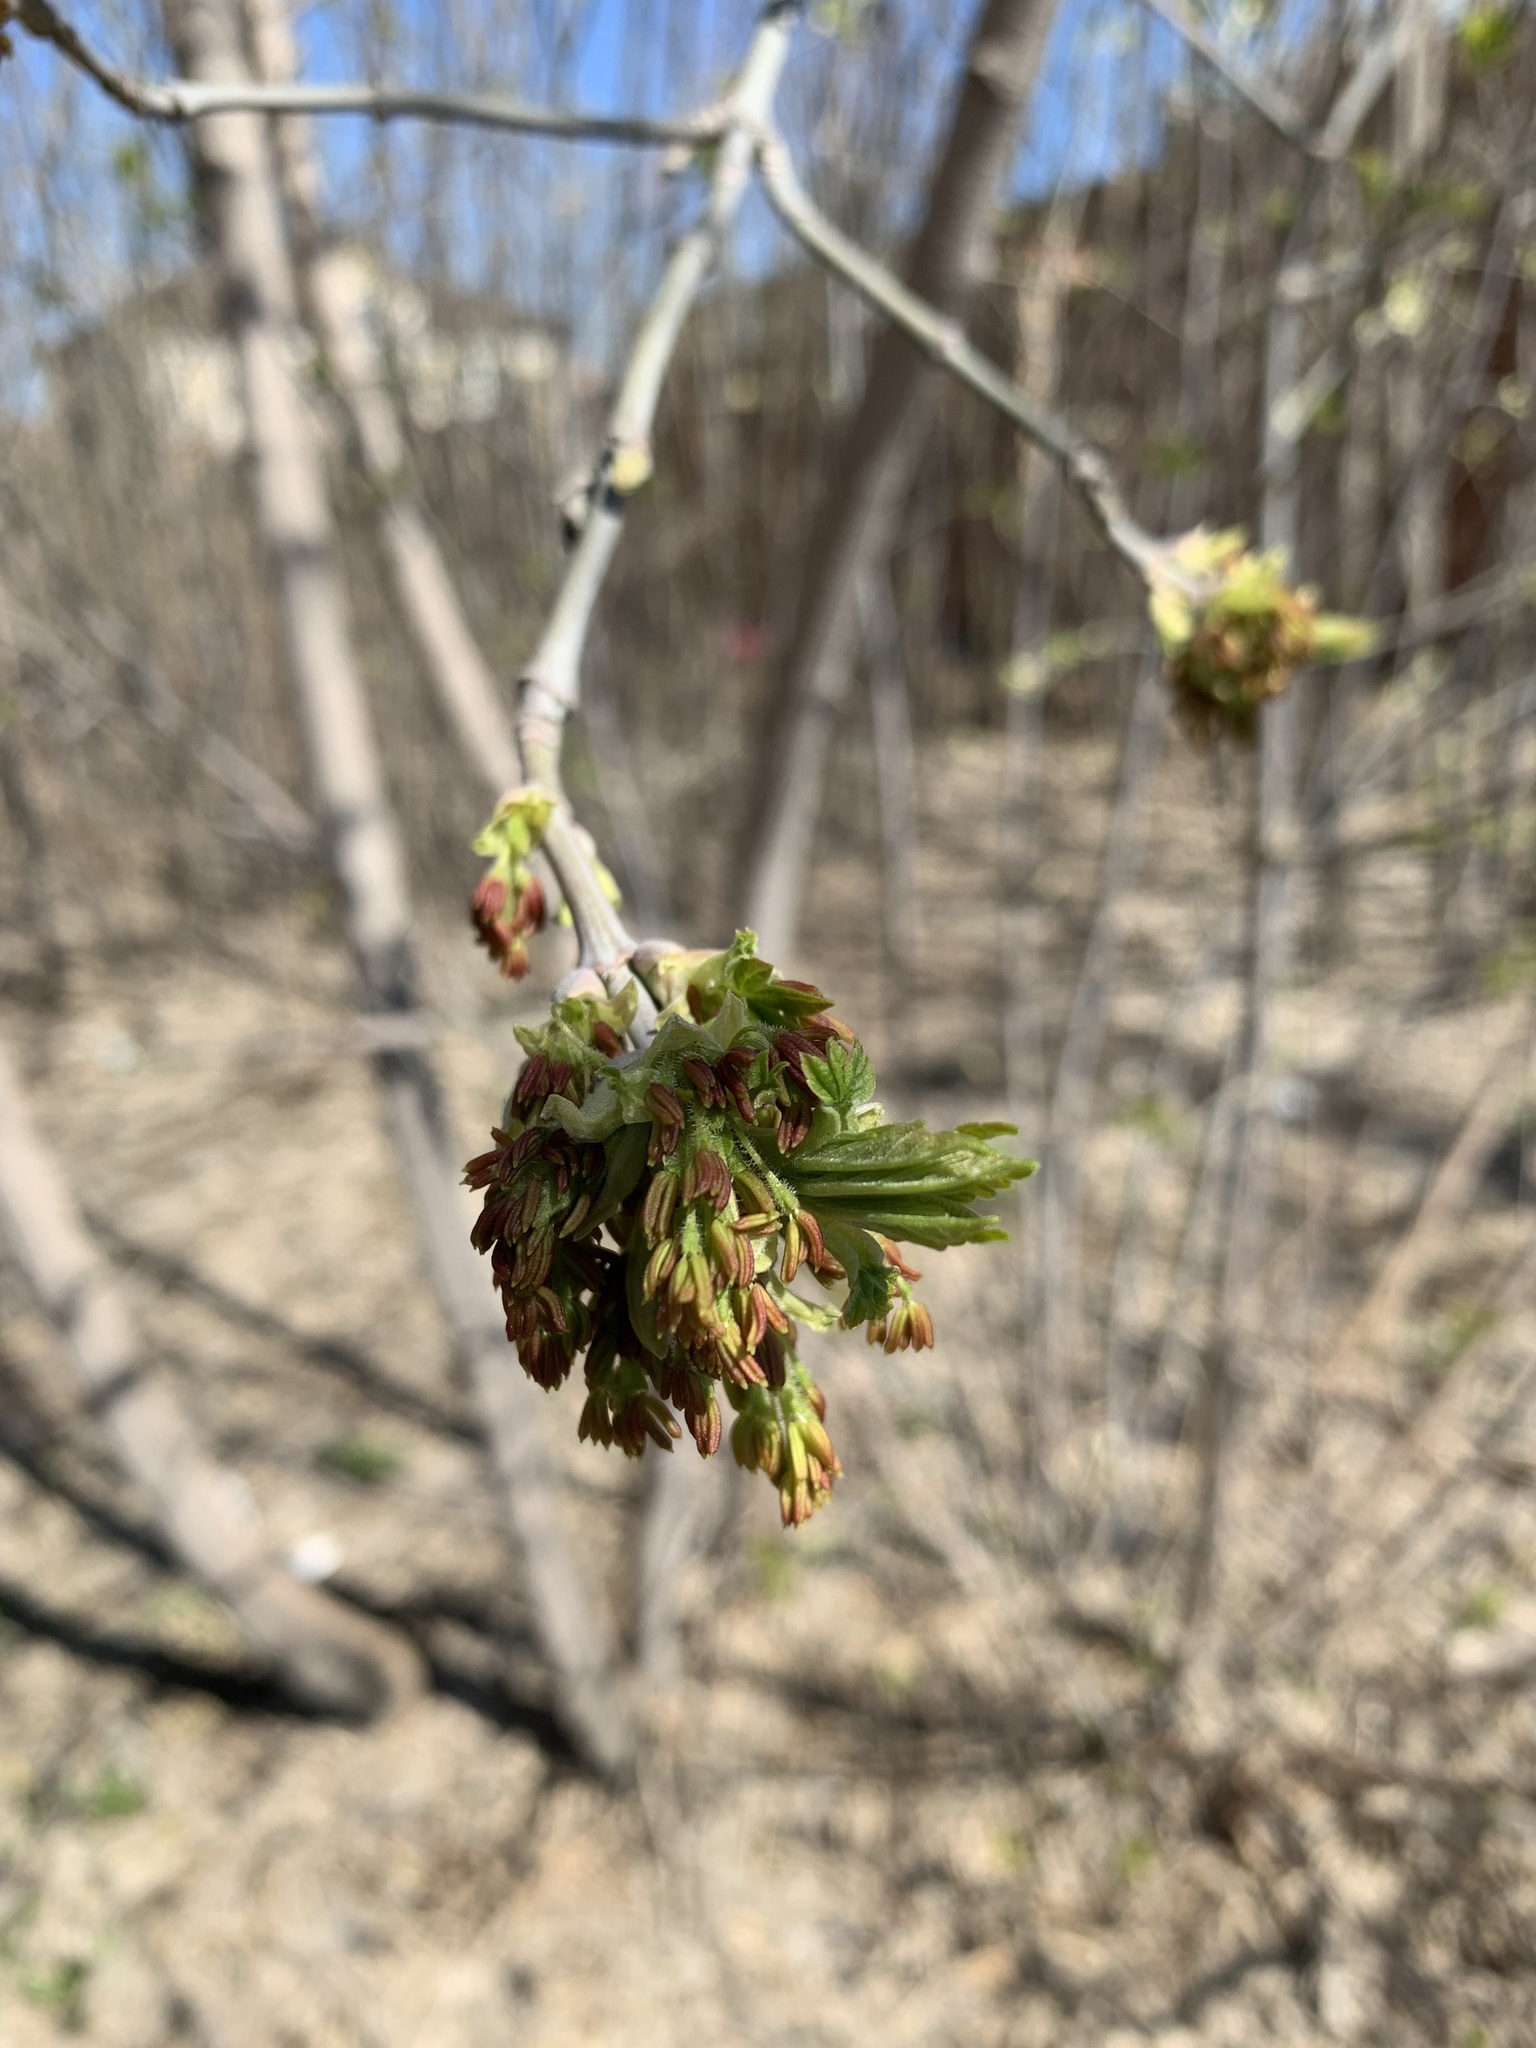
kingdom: Plantae
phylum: Tracheophyta
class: Magnoliopsida
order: Sapindales
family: Sapindaceae
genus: Acer
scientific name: Acer negundo
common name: Ashleaf maple
